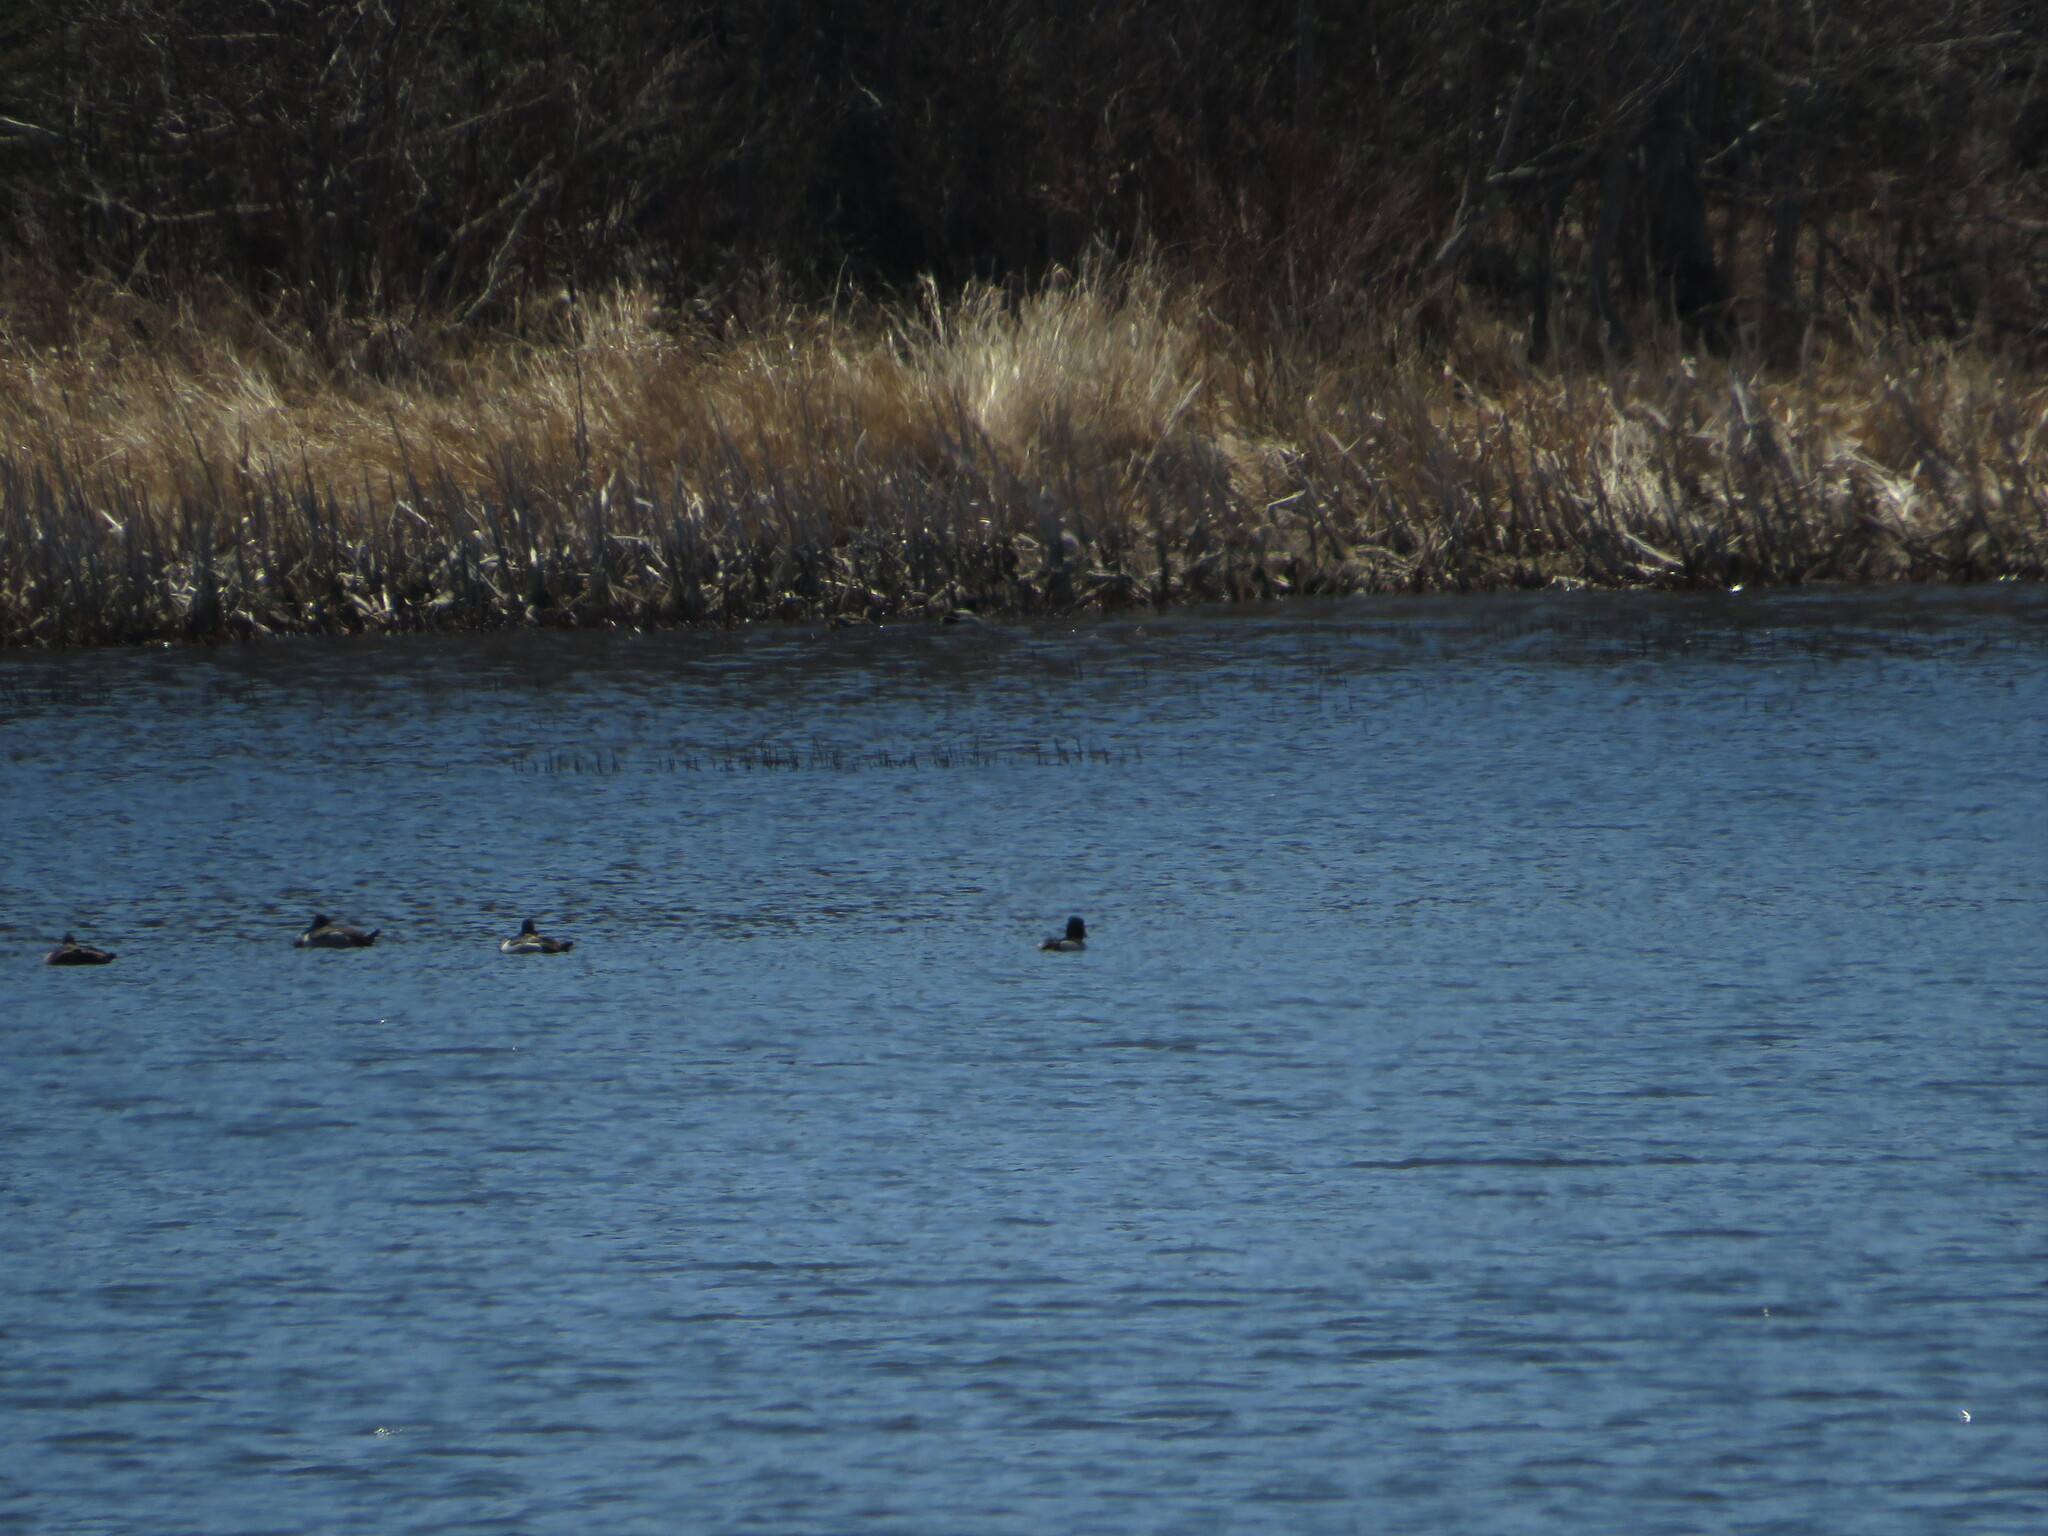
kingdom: Animalia
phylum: Chordata
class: Aves
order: Anseriformes
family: Anatidae
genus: Aythya
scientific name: Aythya collaris
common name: Ring-necked duck
